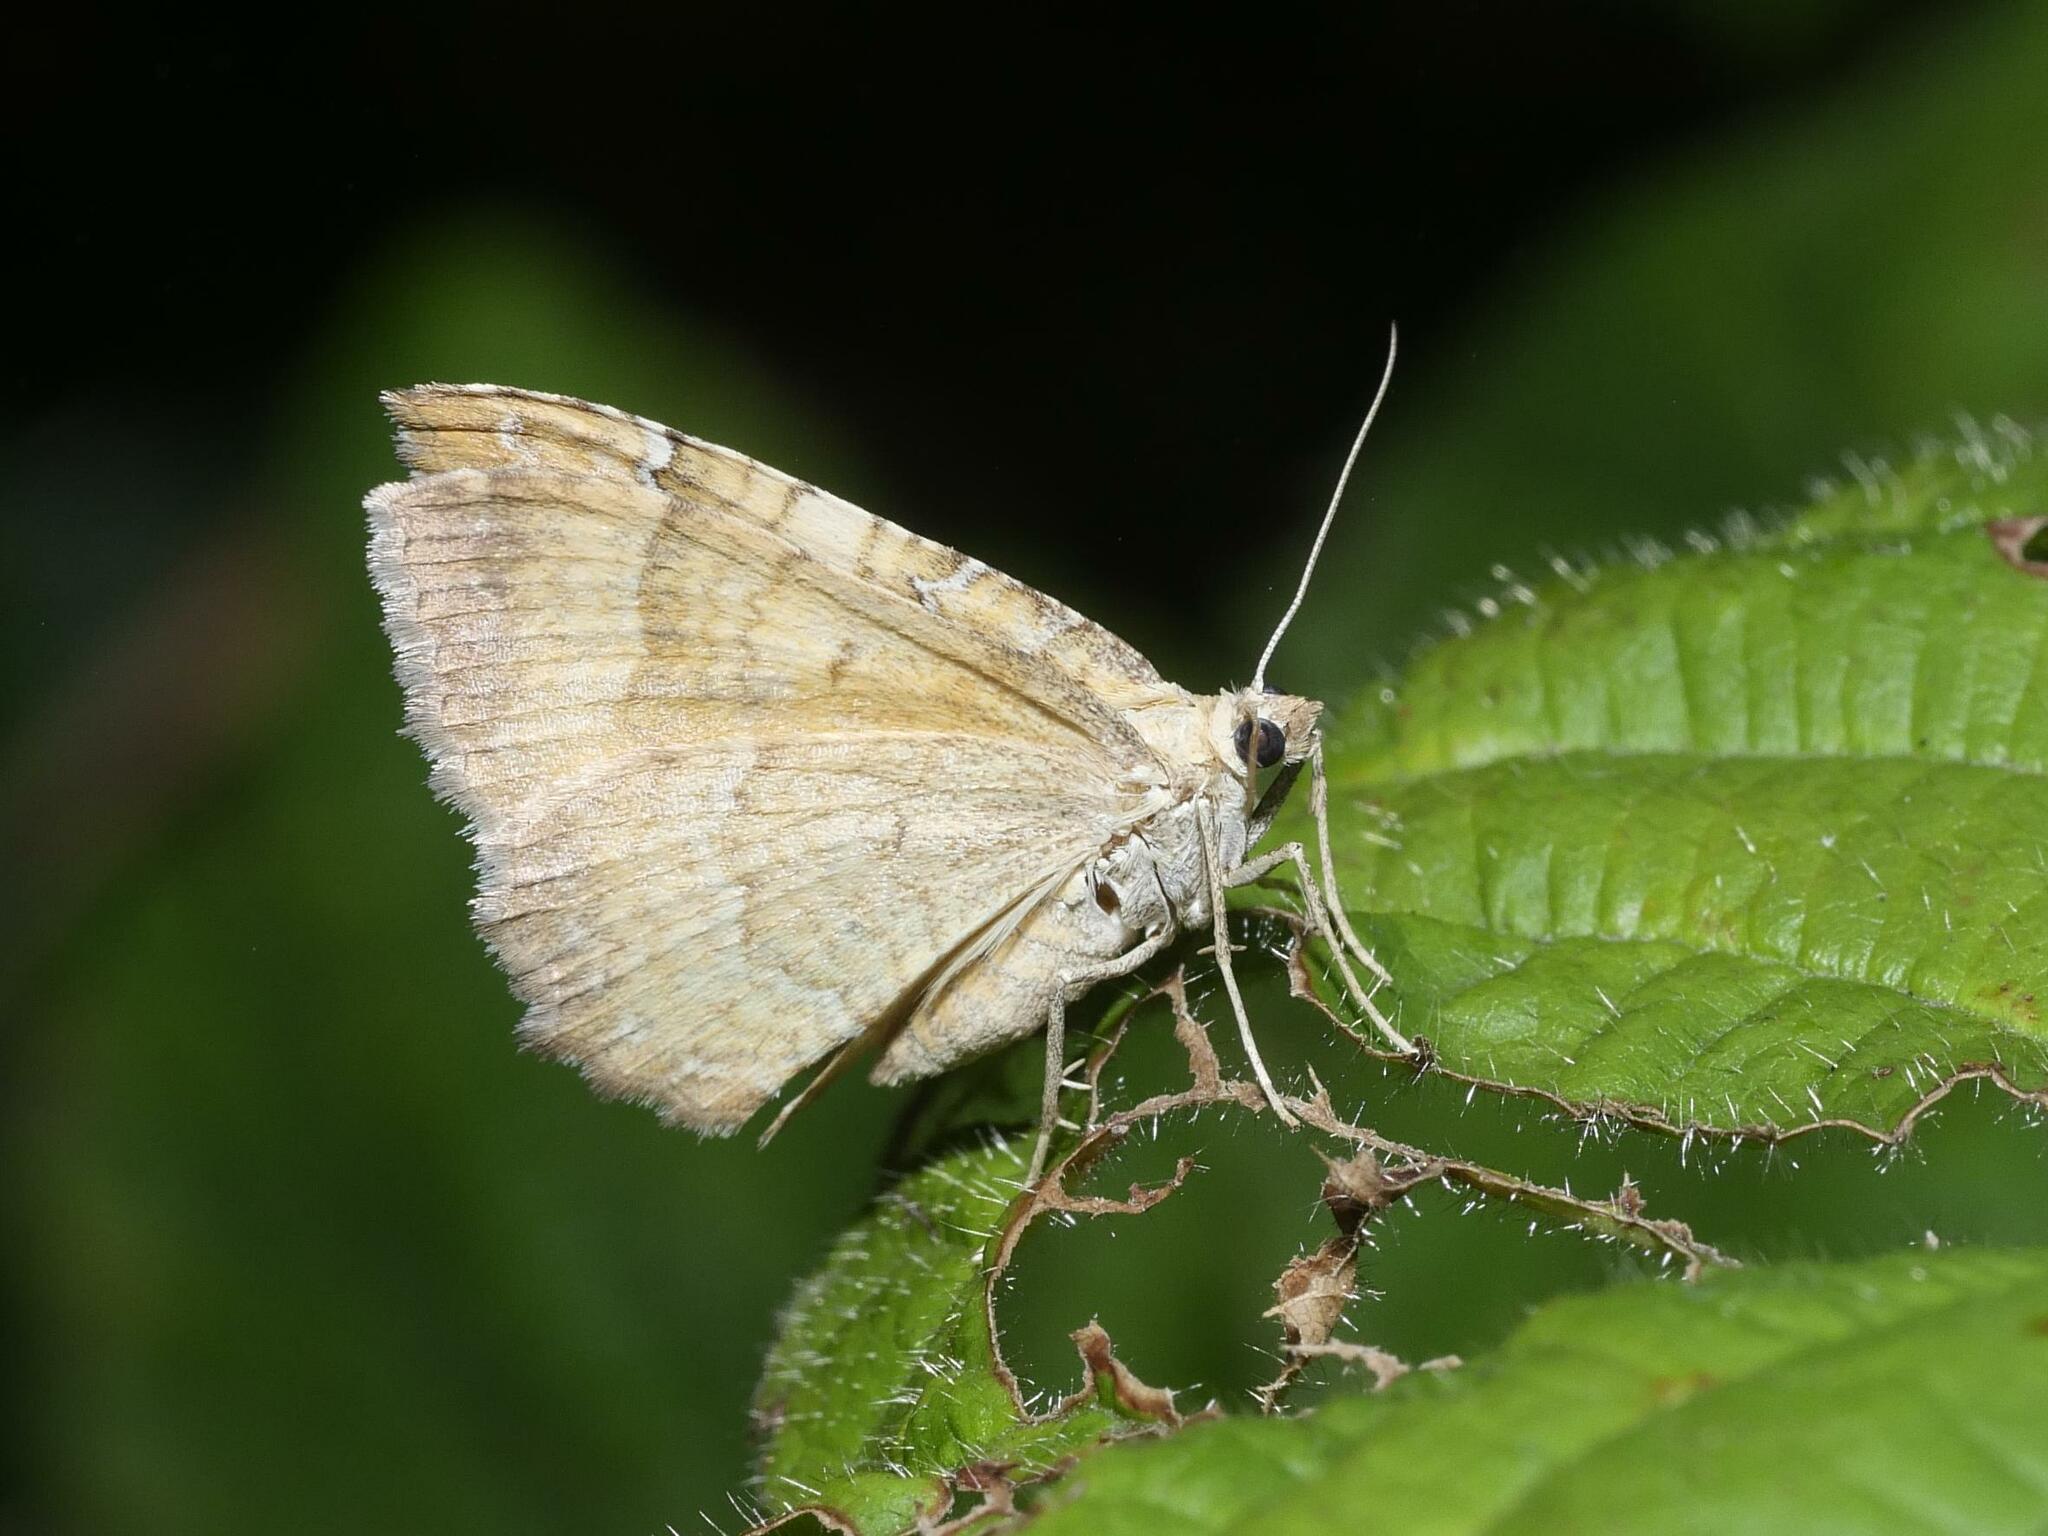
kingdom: Animalia
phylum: Arthropoda
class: Insecta
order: Lepidoptera
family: Geometridae
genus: Camptogramma
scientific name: Camptogramma bilineata
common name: Yellow shell
